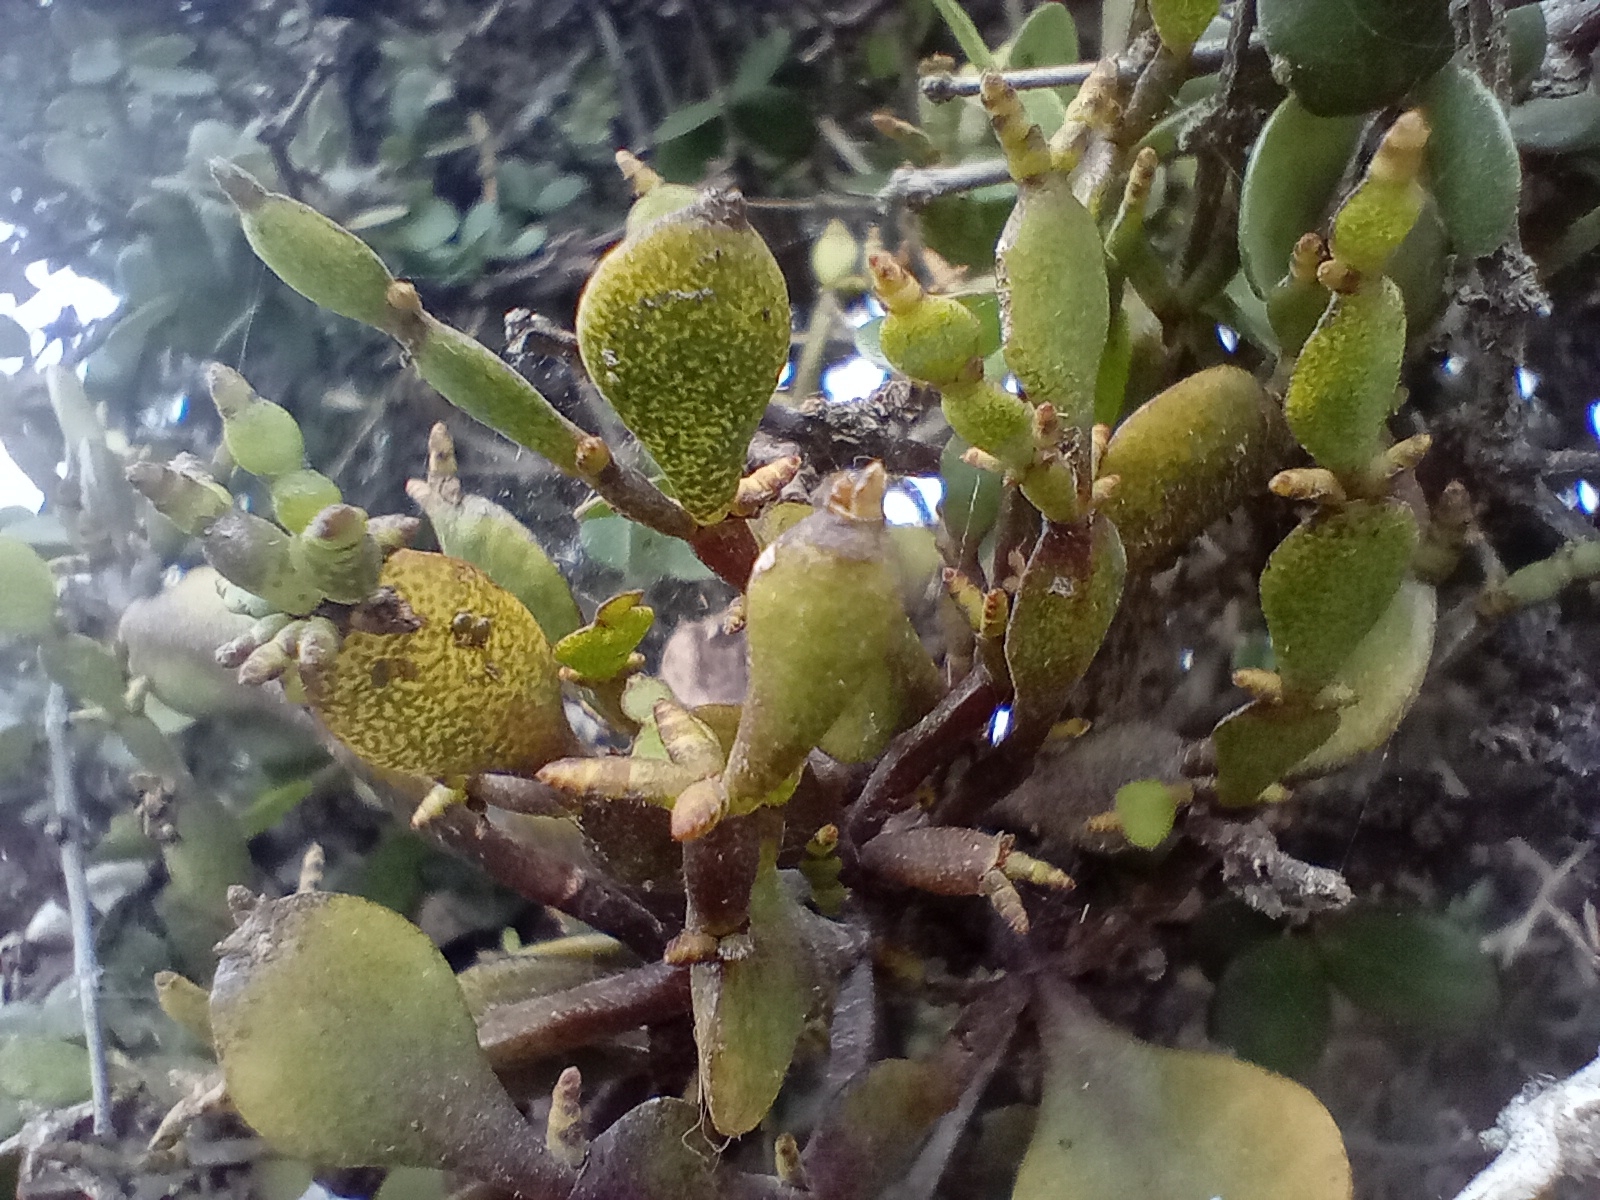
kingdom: Plantae
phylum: Tracheophyta
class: Magnoliopsida
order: Santalales
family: Viscaceae
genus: Korthalsella
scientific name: Korthalsella lindsayi
